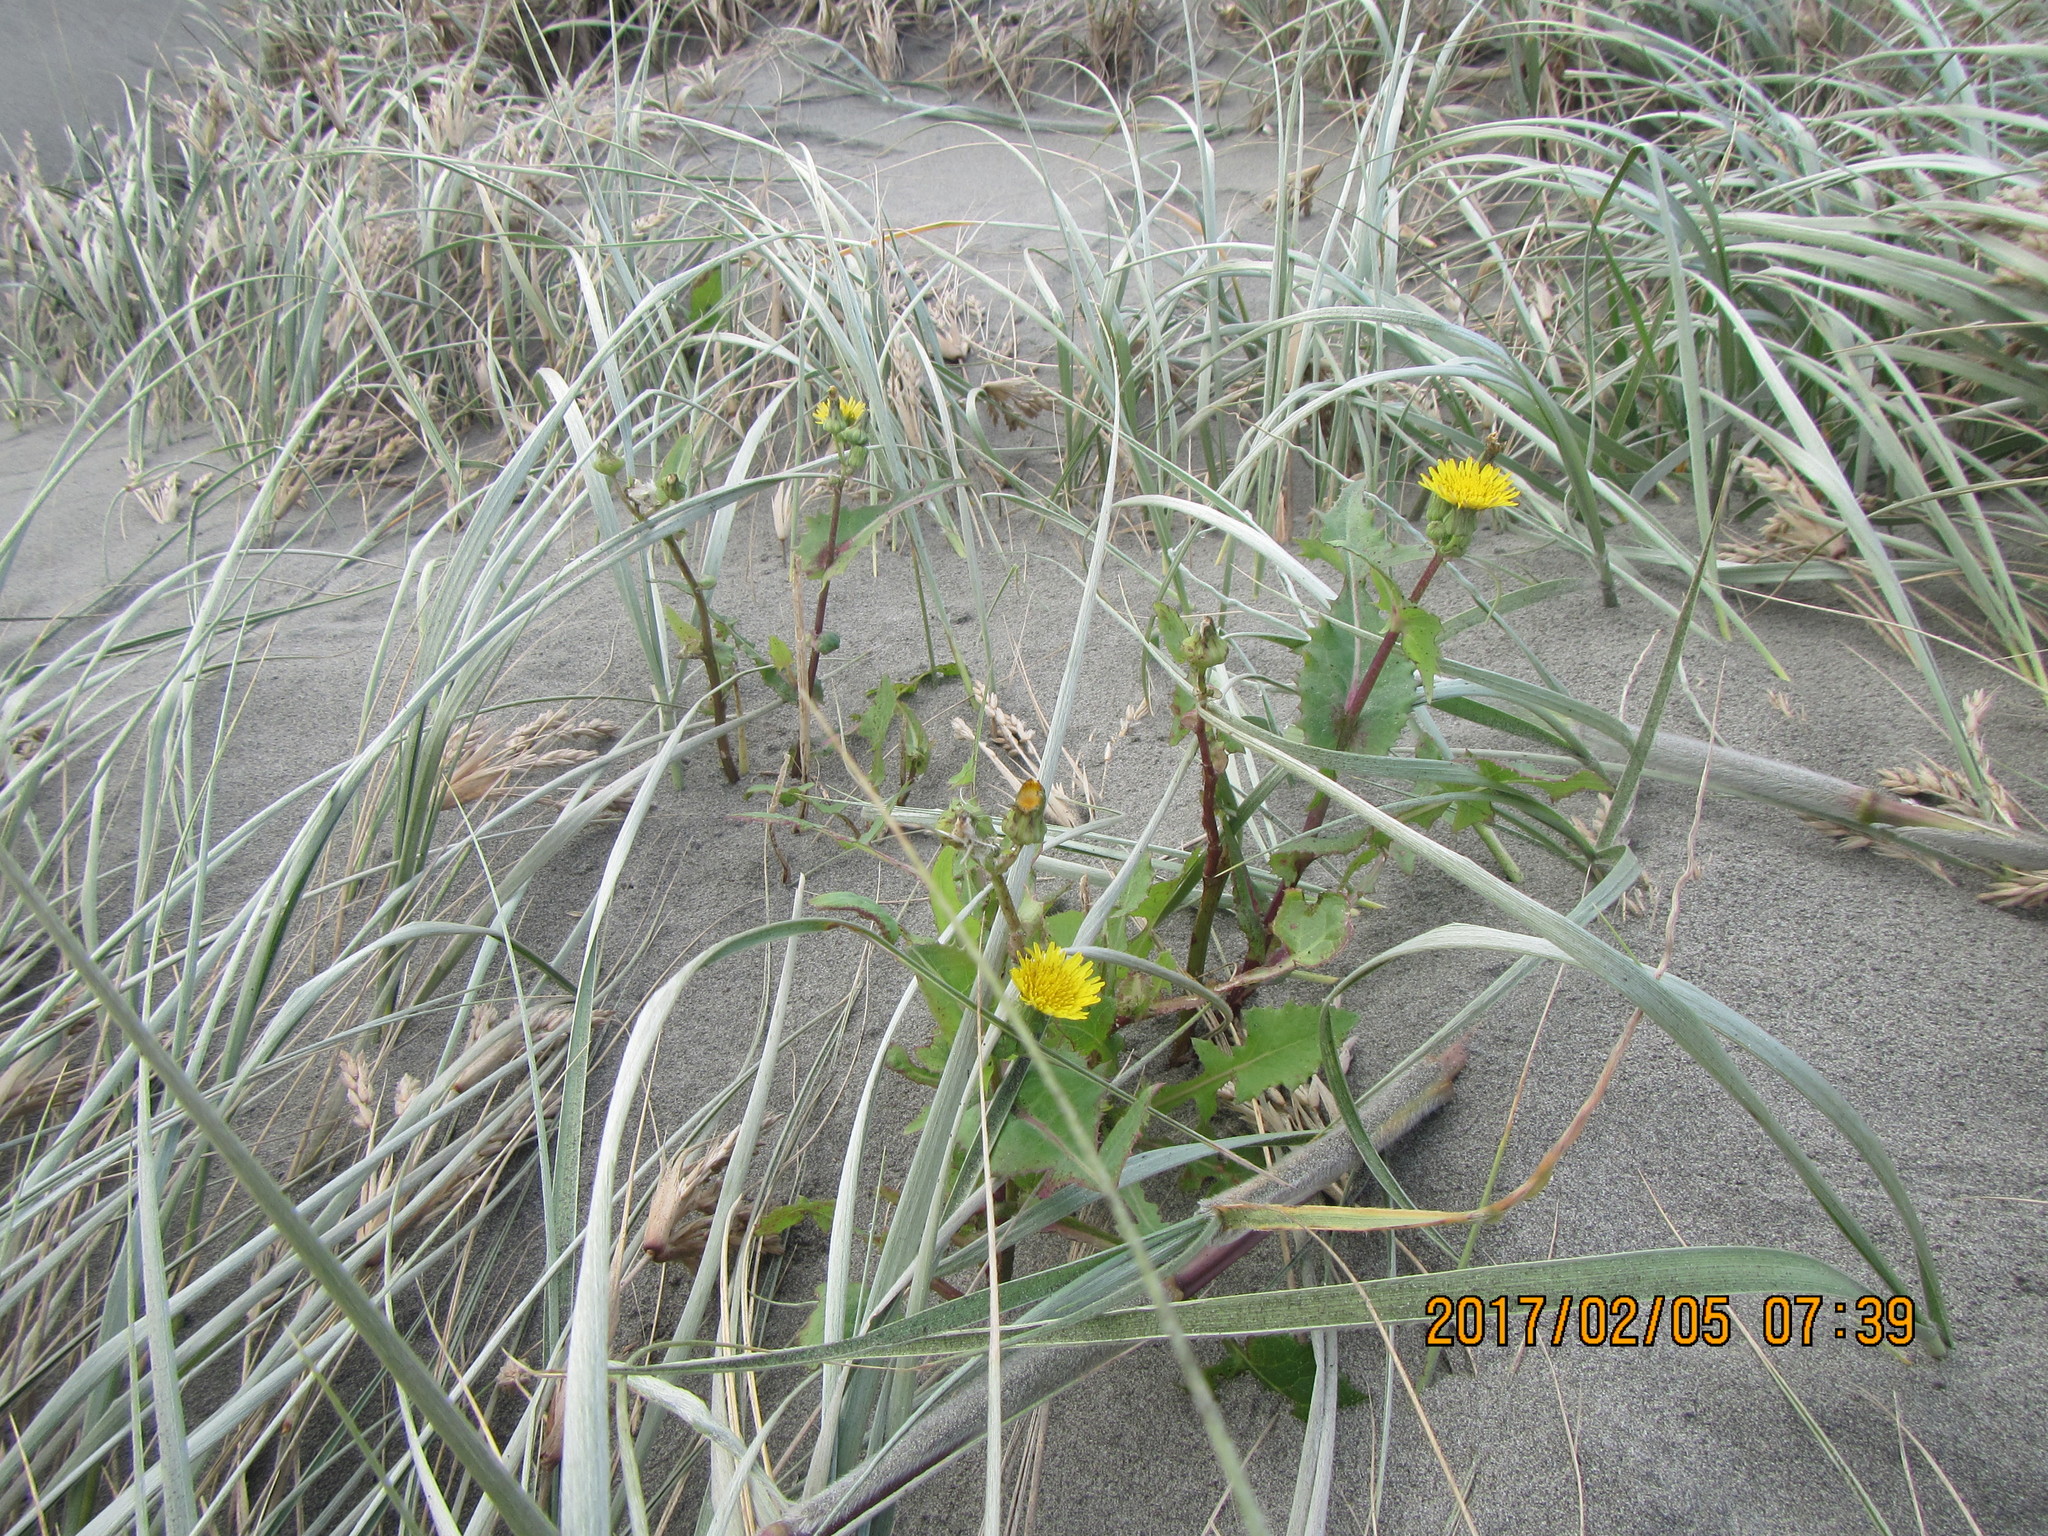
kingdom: Plantae
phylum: Tracheophyta
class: Magnoliopsida
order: Asterales
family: Asteraceae
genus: Sonchus
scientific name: Sonchus oleraceus
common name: Common sowthistle
